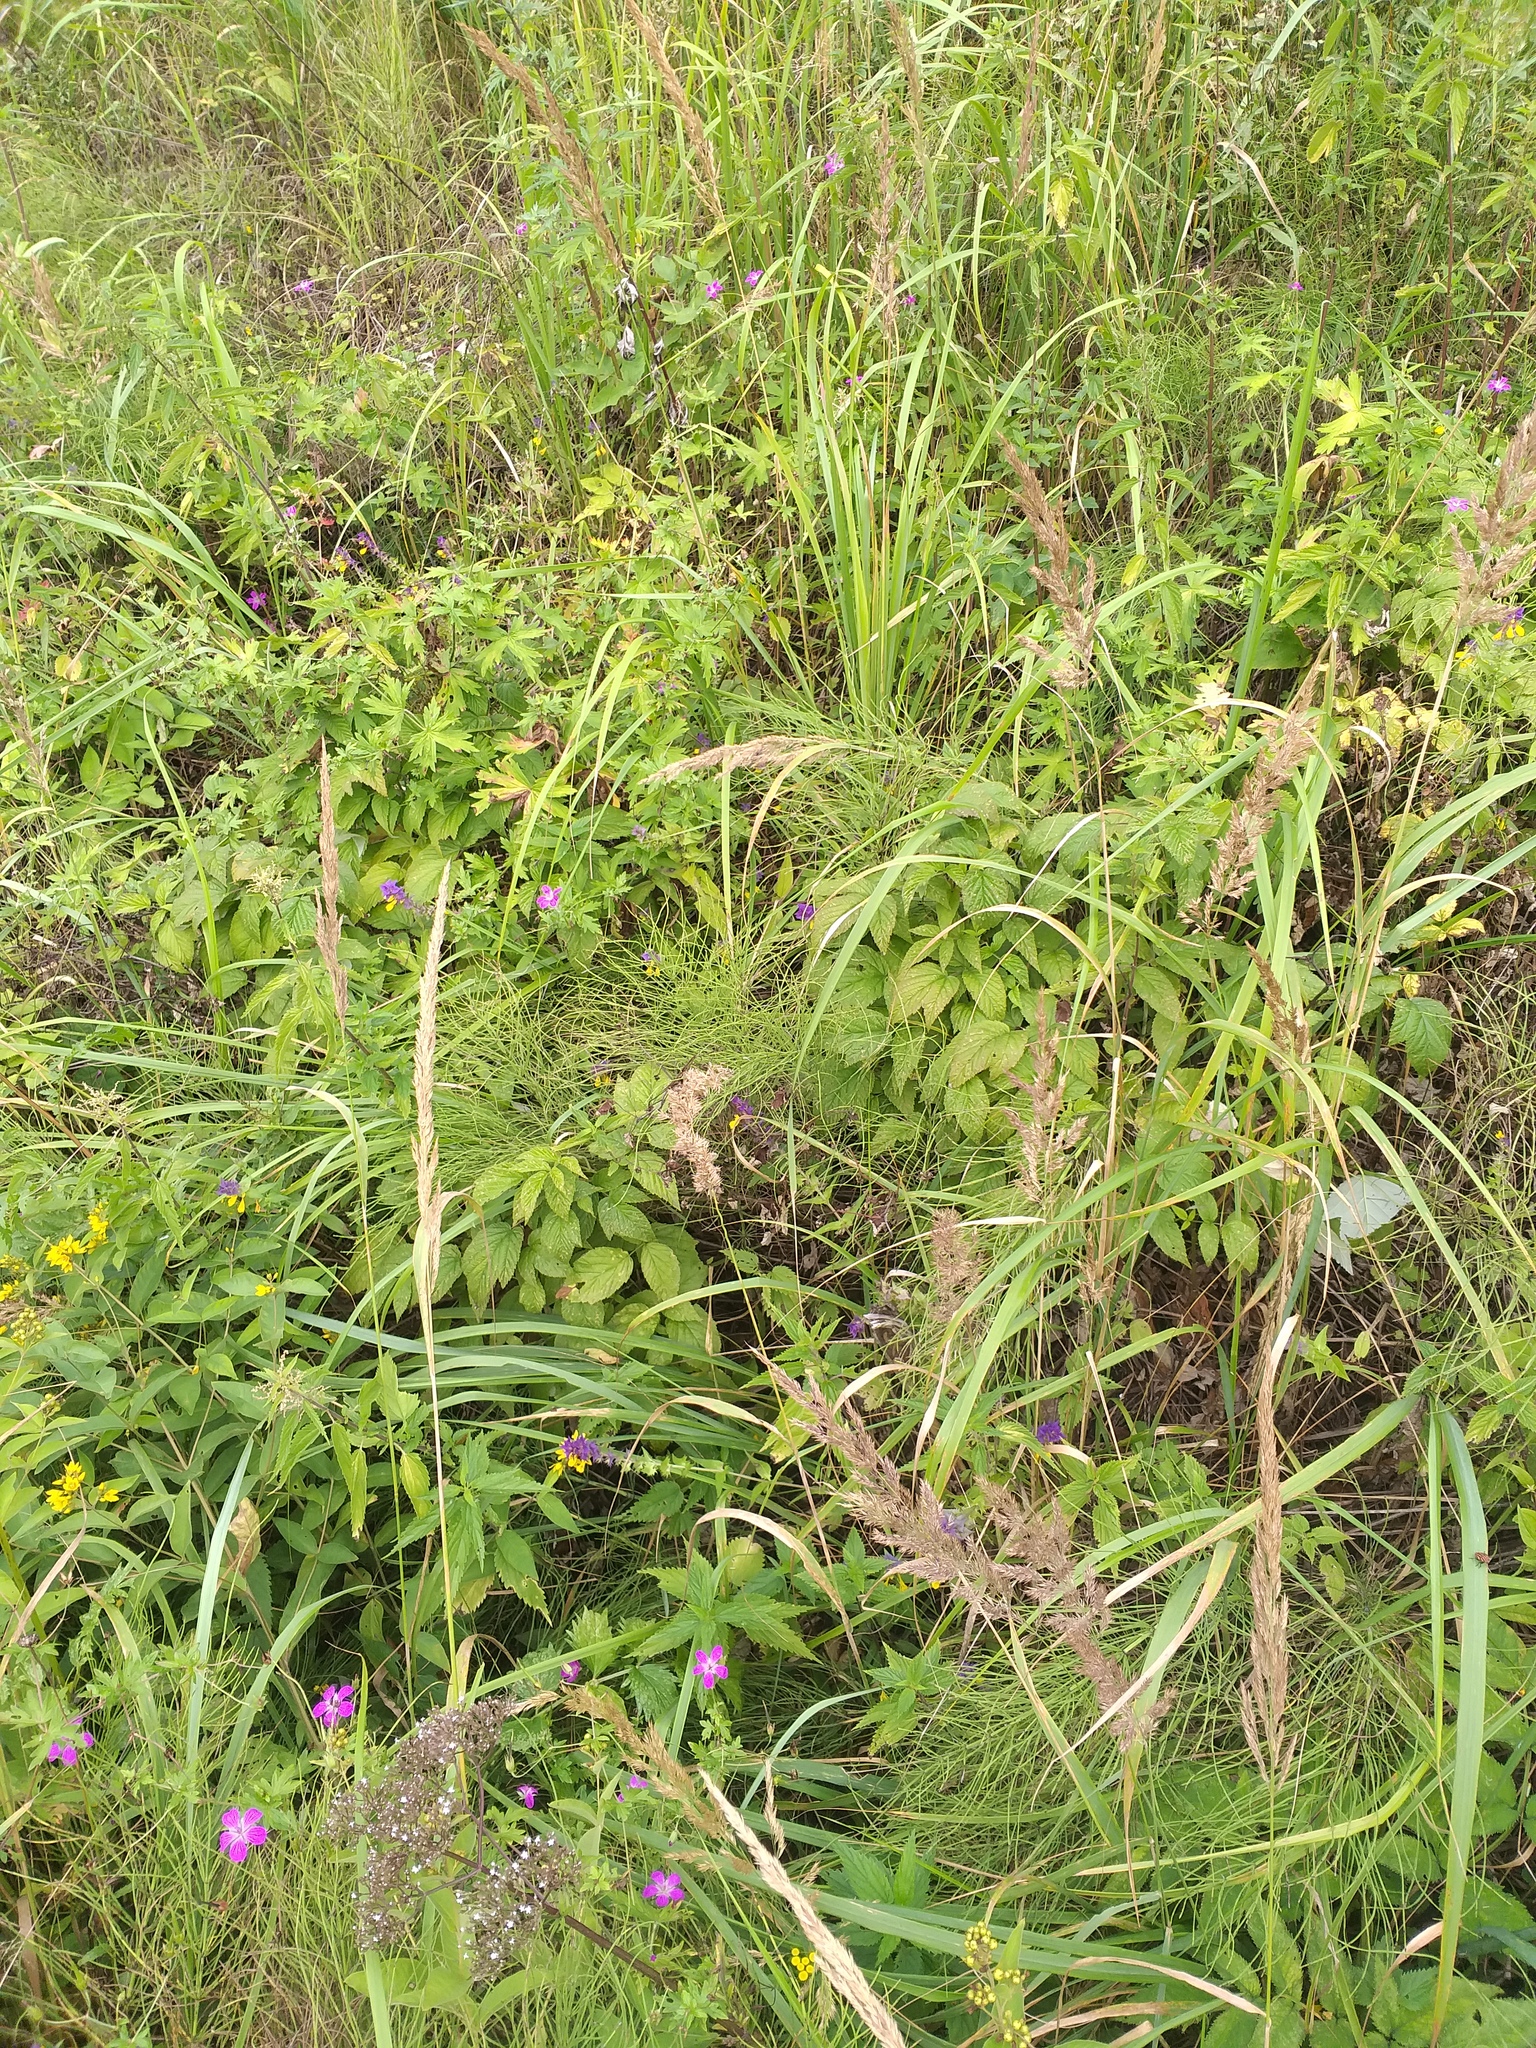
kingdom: Plantae
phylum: Tracheophyta
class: Magnoliopsida
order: Rosales
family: Rosaceae
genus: Rubus
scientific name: Rubus idaeus
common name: Raspberry
